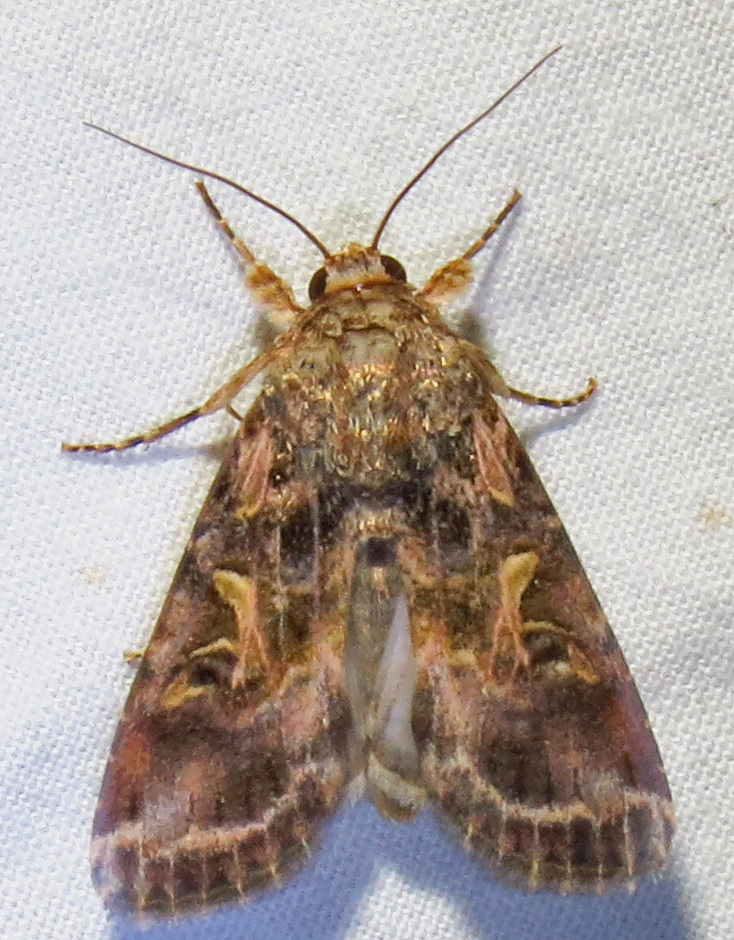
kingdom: Animalia
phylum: Arthropoda
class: Insecta
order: Lepidoptera
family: Noctuidae
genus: Spodoptera
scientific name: Spodoptera ornithogalli
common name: Yellow-striped armyworm
